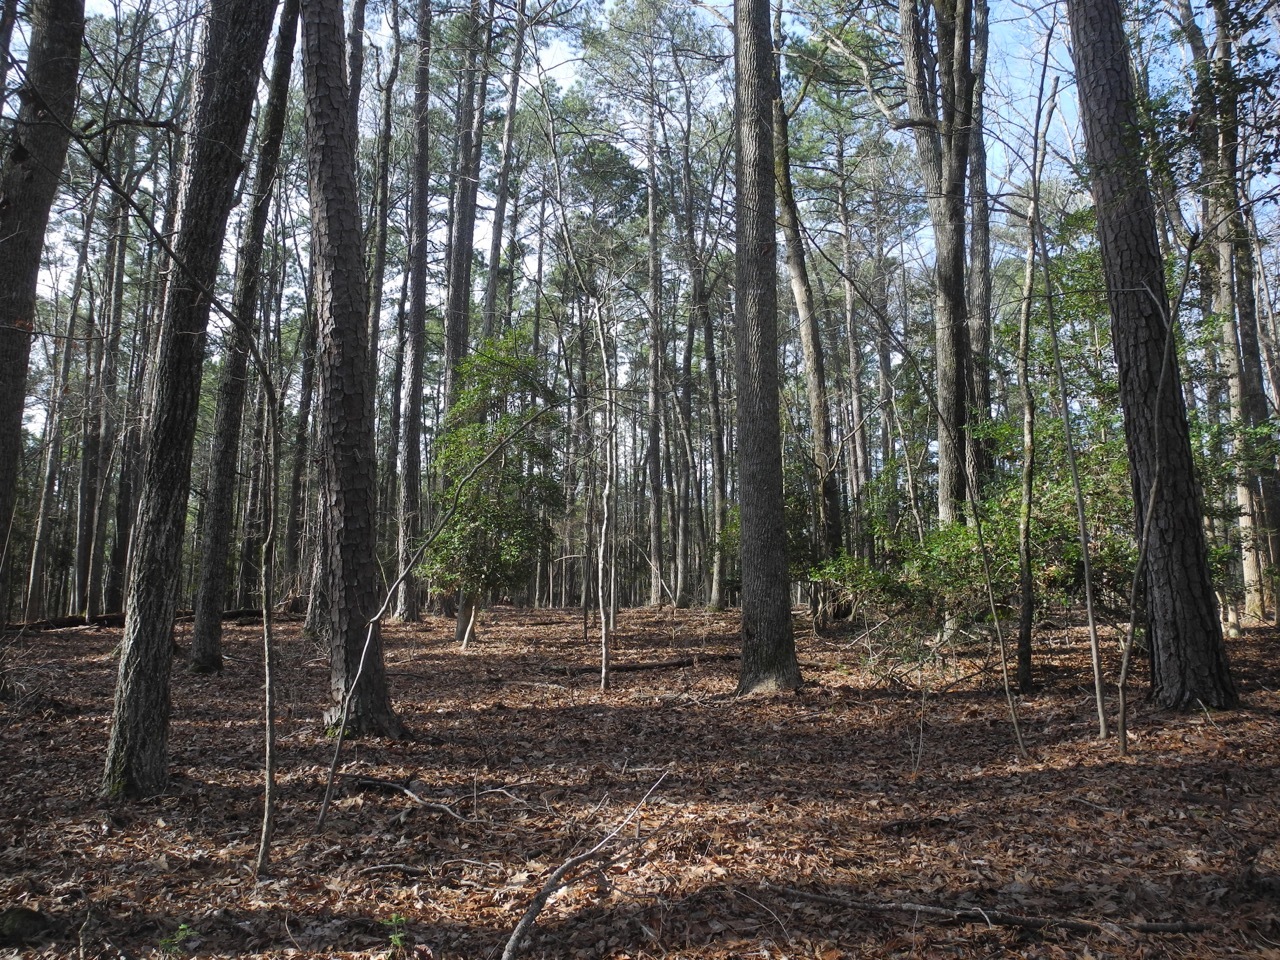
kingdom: Plantae
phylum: Tracheophyta
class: Magnoliopsida
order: Fagales
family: Fagaceae
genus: Quercus
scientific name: Quercus rubra
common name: Red oak
